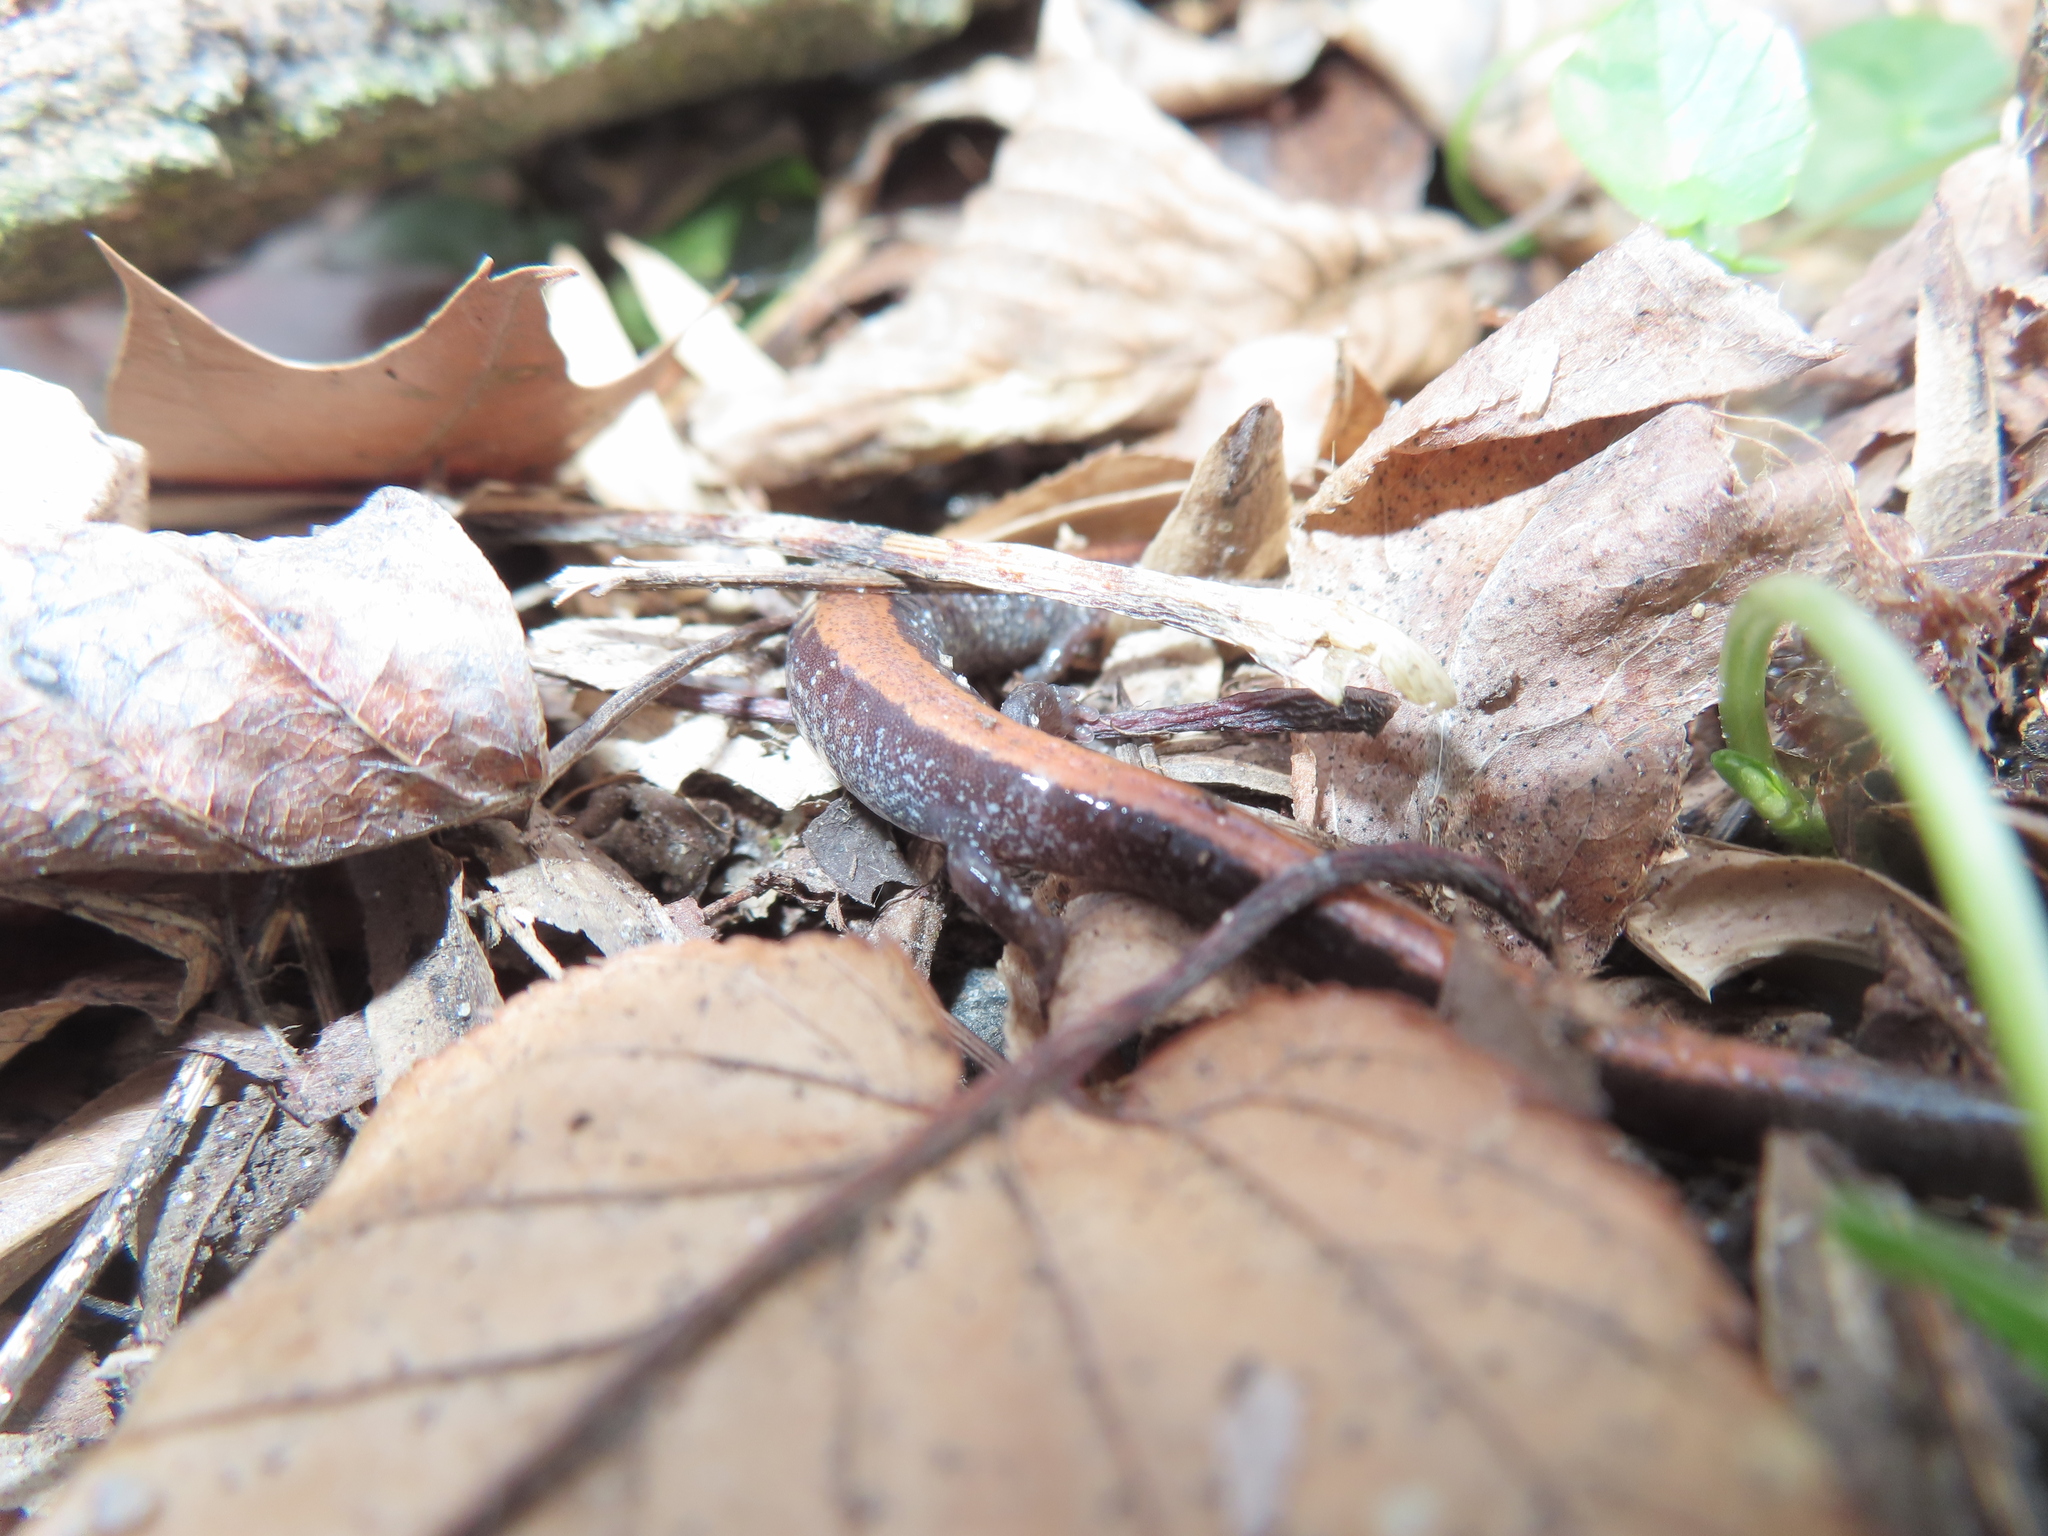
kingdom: Animalia
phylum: Chordata
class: Amphibia
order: Caudata
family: Plethodontidae
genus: Plethodon
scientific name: Plethodon cinereus
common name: Redback salamander
